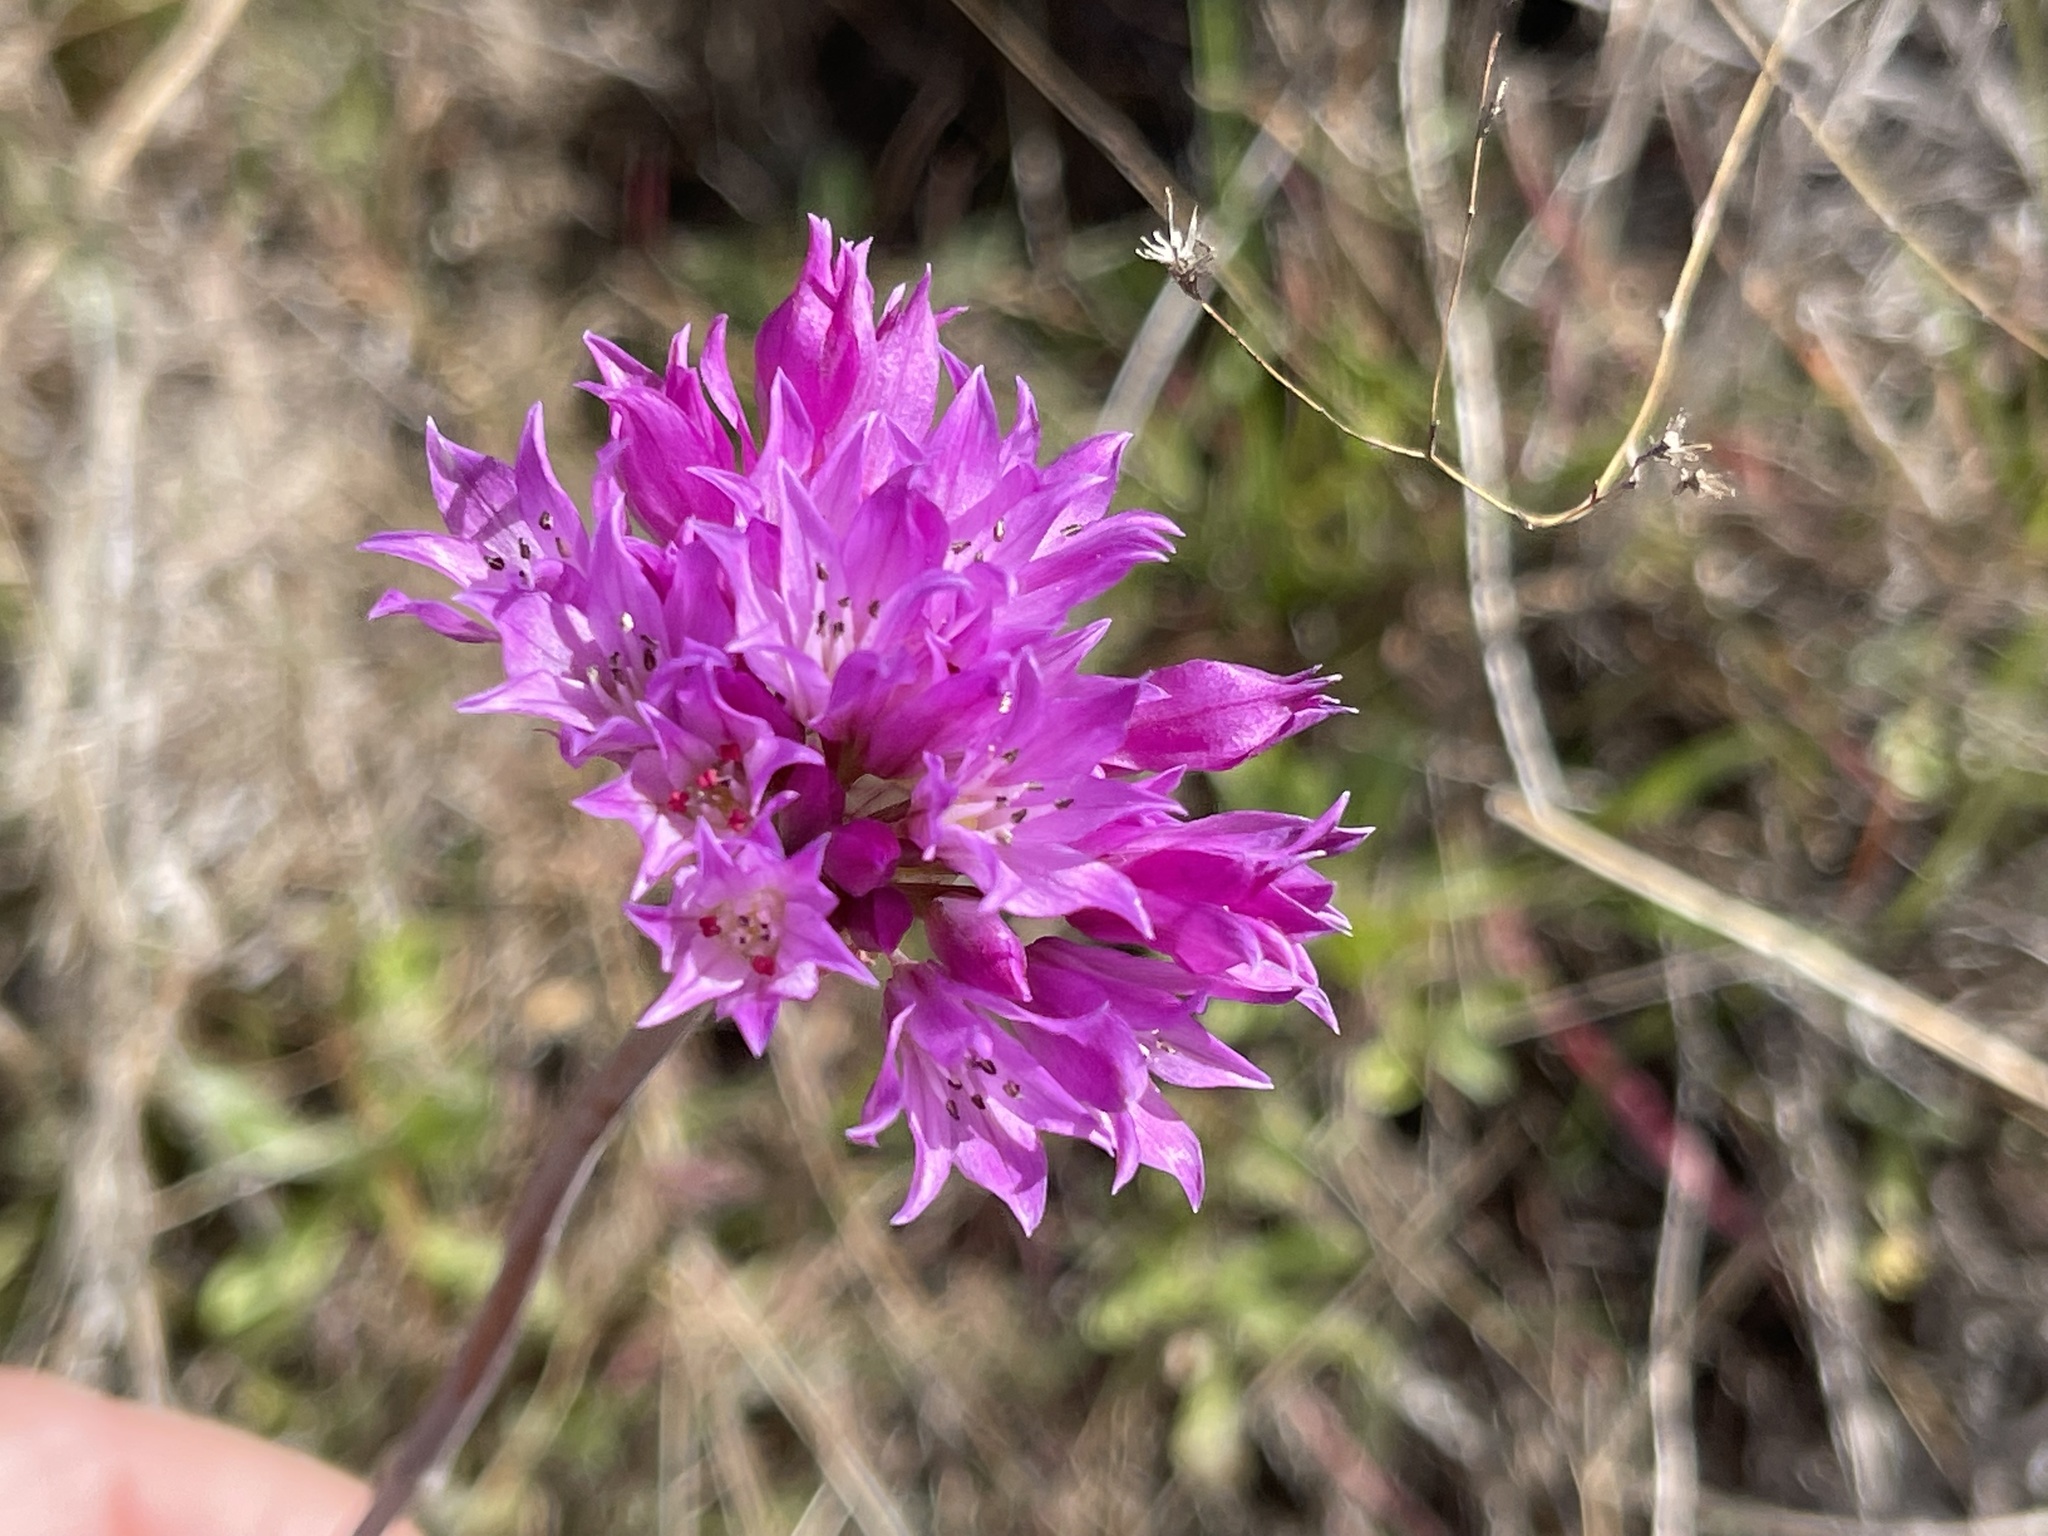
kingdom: Plantae
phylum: Tracheophyta
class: Liliopsida
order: Asparagales
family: Amaryllidaceae
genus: Allium
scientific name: Allium serra
